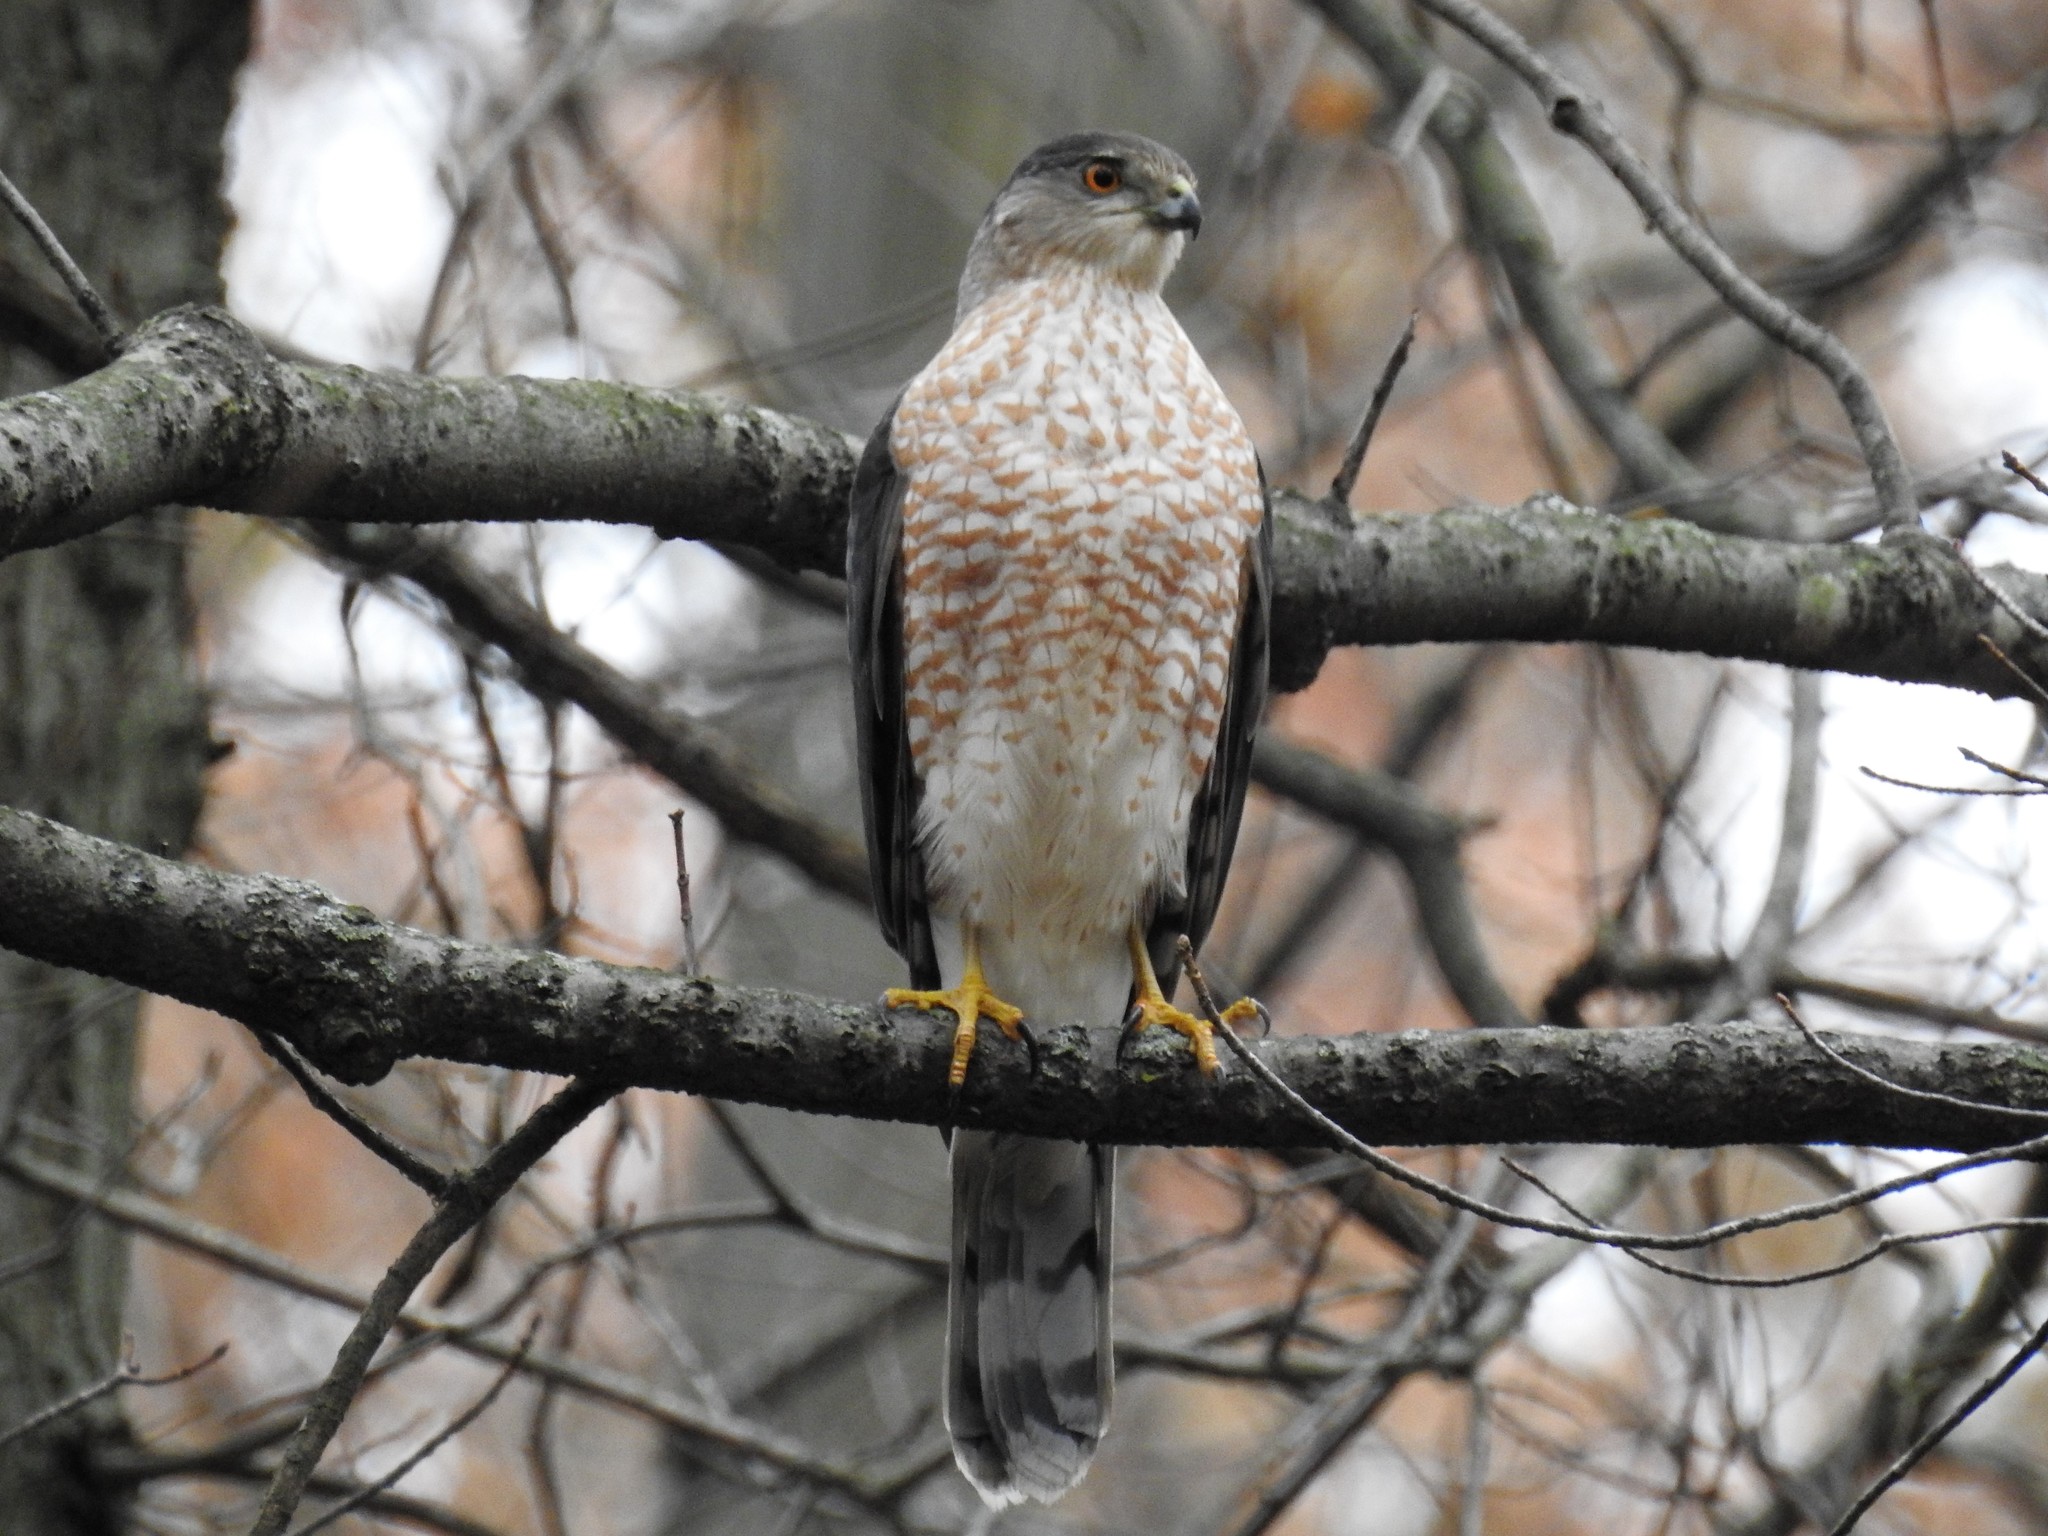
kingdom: Animalia
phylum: Chordata
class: Aves
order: Accipitriformes
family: Accipitridae
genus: Accipiter
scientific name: Accipiter cooperii
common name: Cooper's hawk
